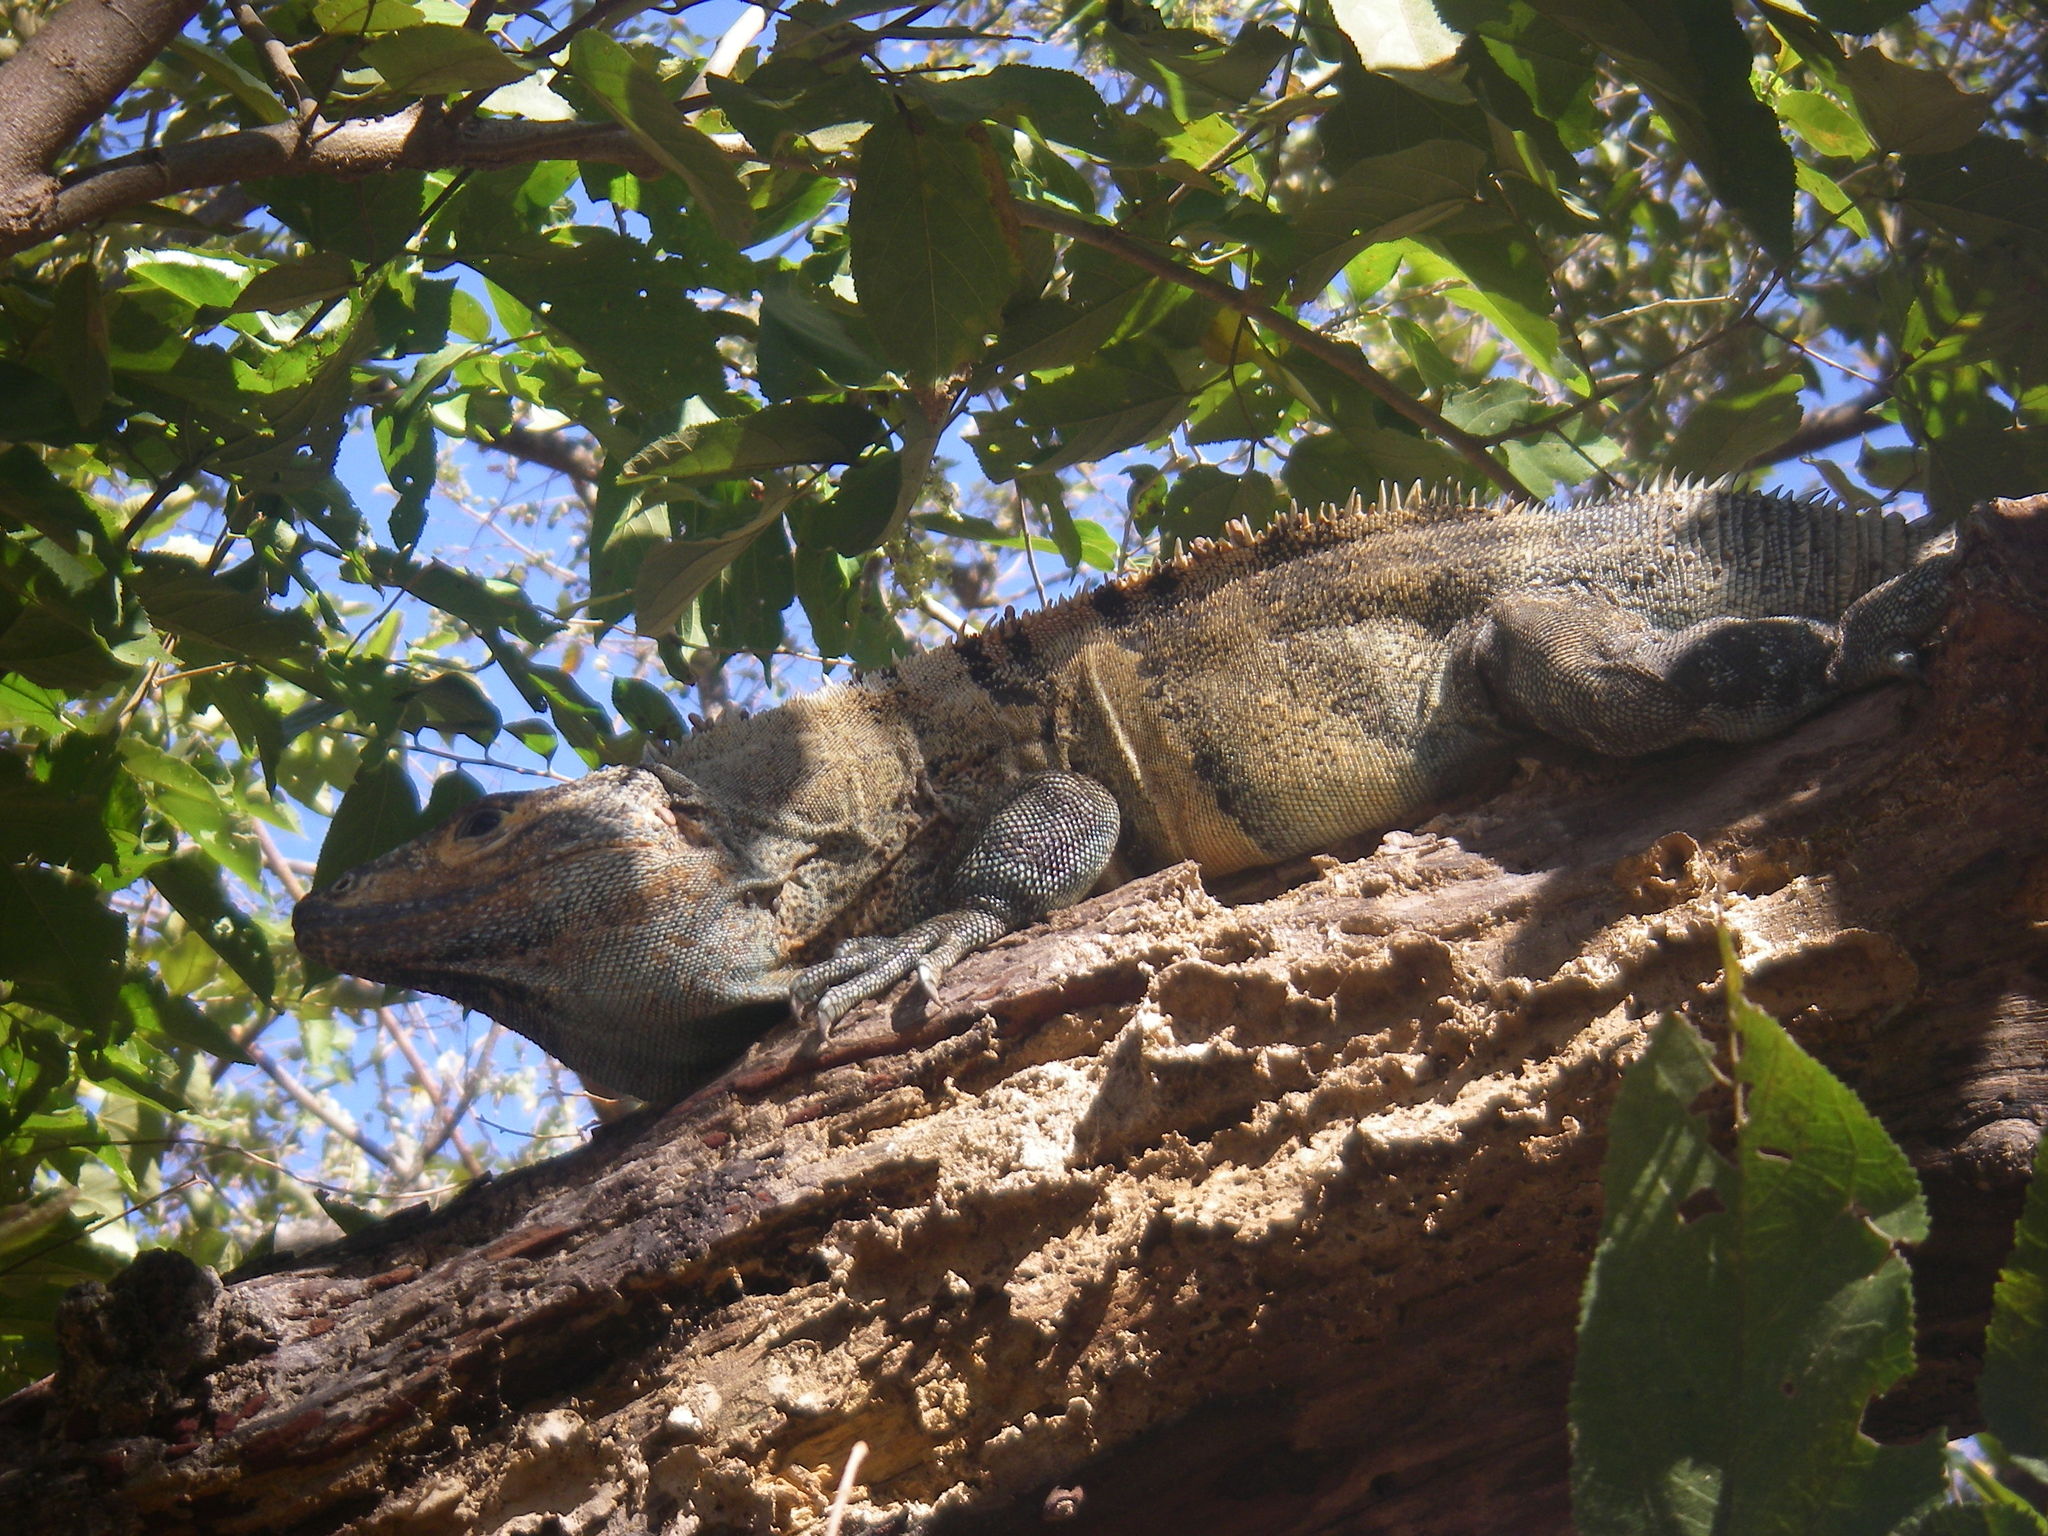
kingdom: Animalia
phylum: Chordata
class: Squamata
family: Iguanidae
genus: Ctenosaura
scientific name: Ctenosaura similis
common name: Black spiny-tailed iguana
